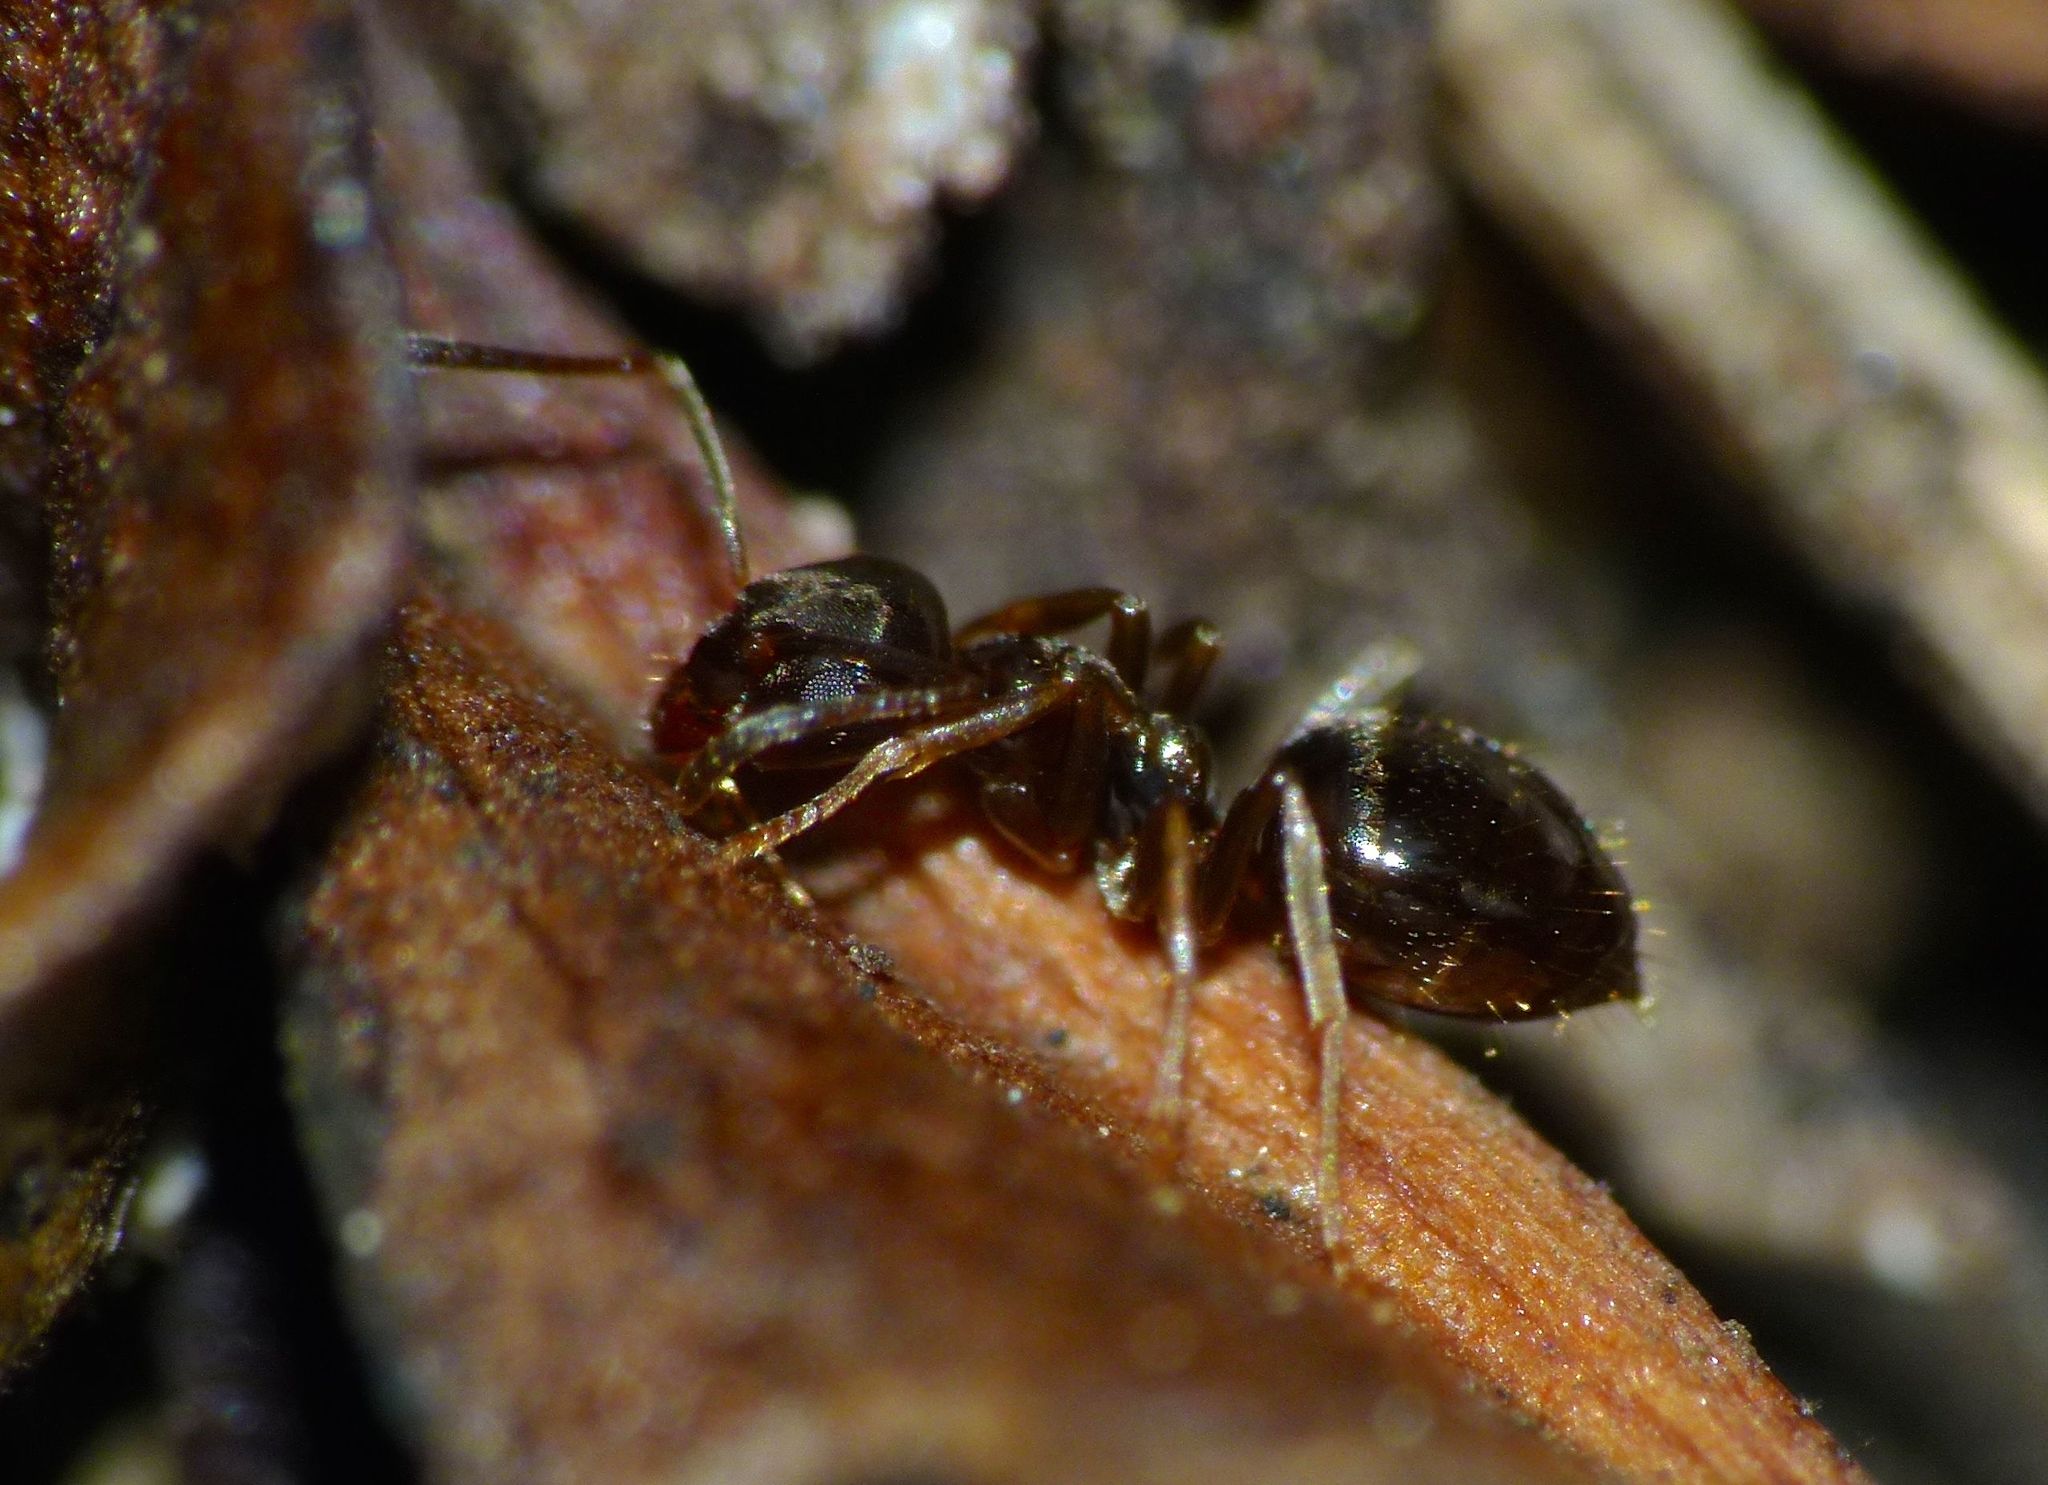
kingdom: Animalia
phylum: Arthropoda
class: Insecta
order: Hymenoptera
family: Formicidae
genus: Prolasius
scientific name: Prolasius advenus
